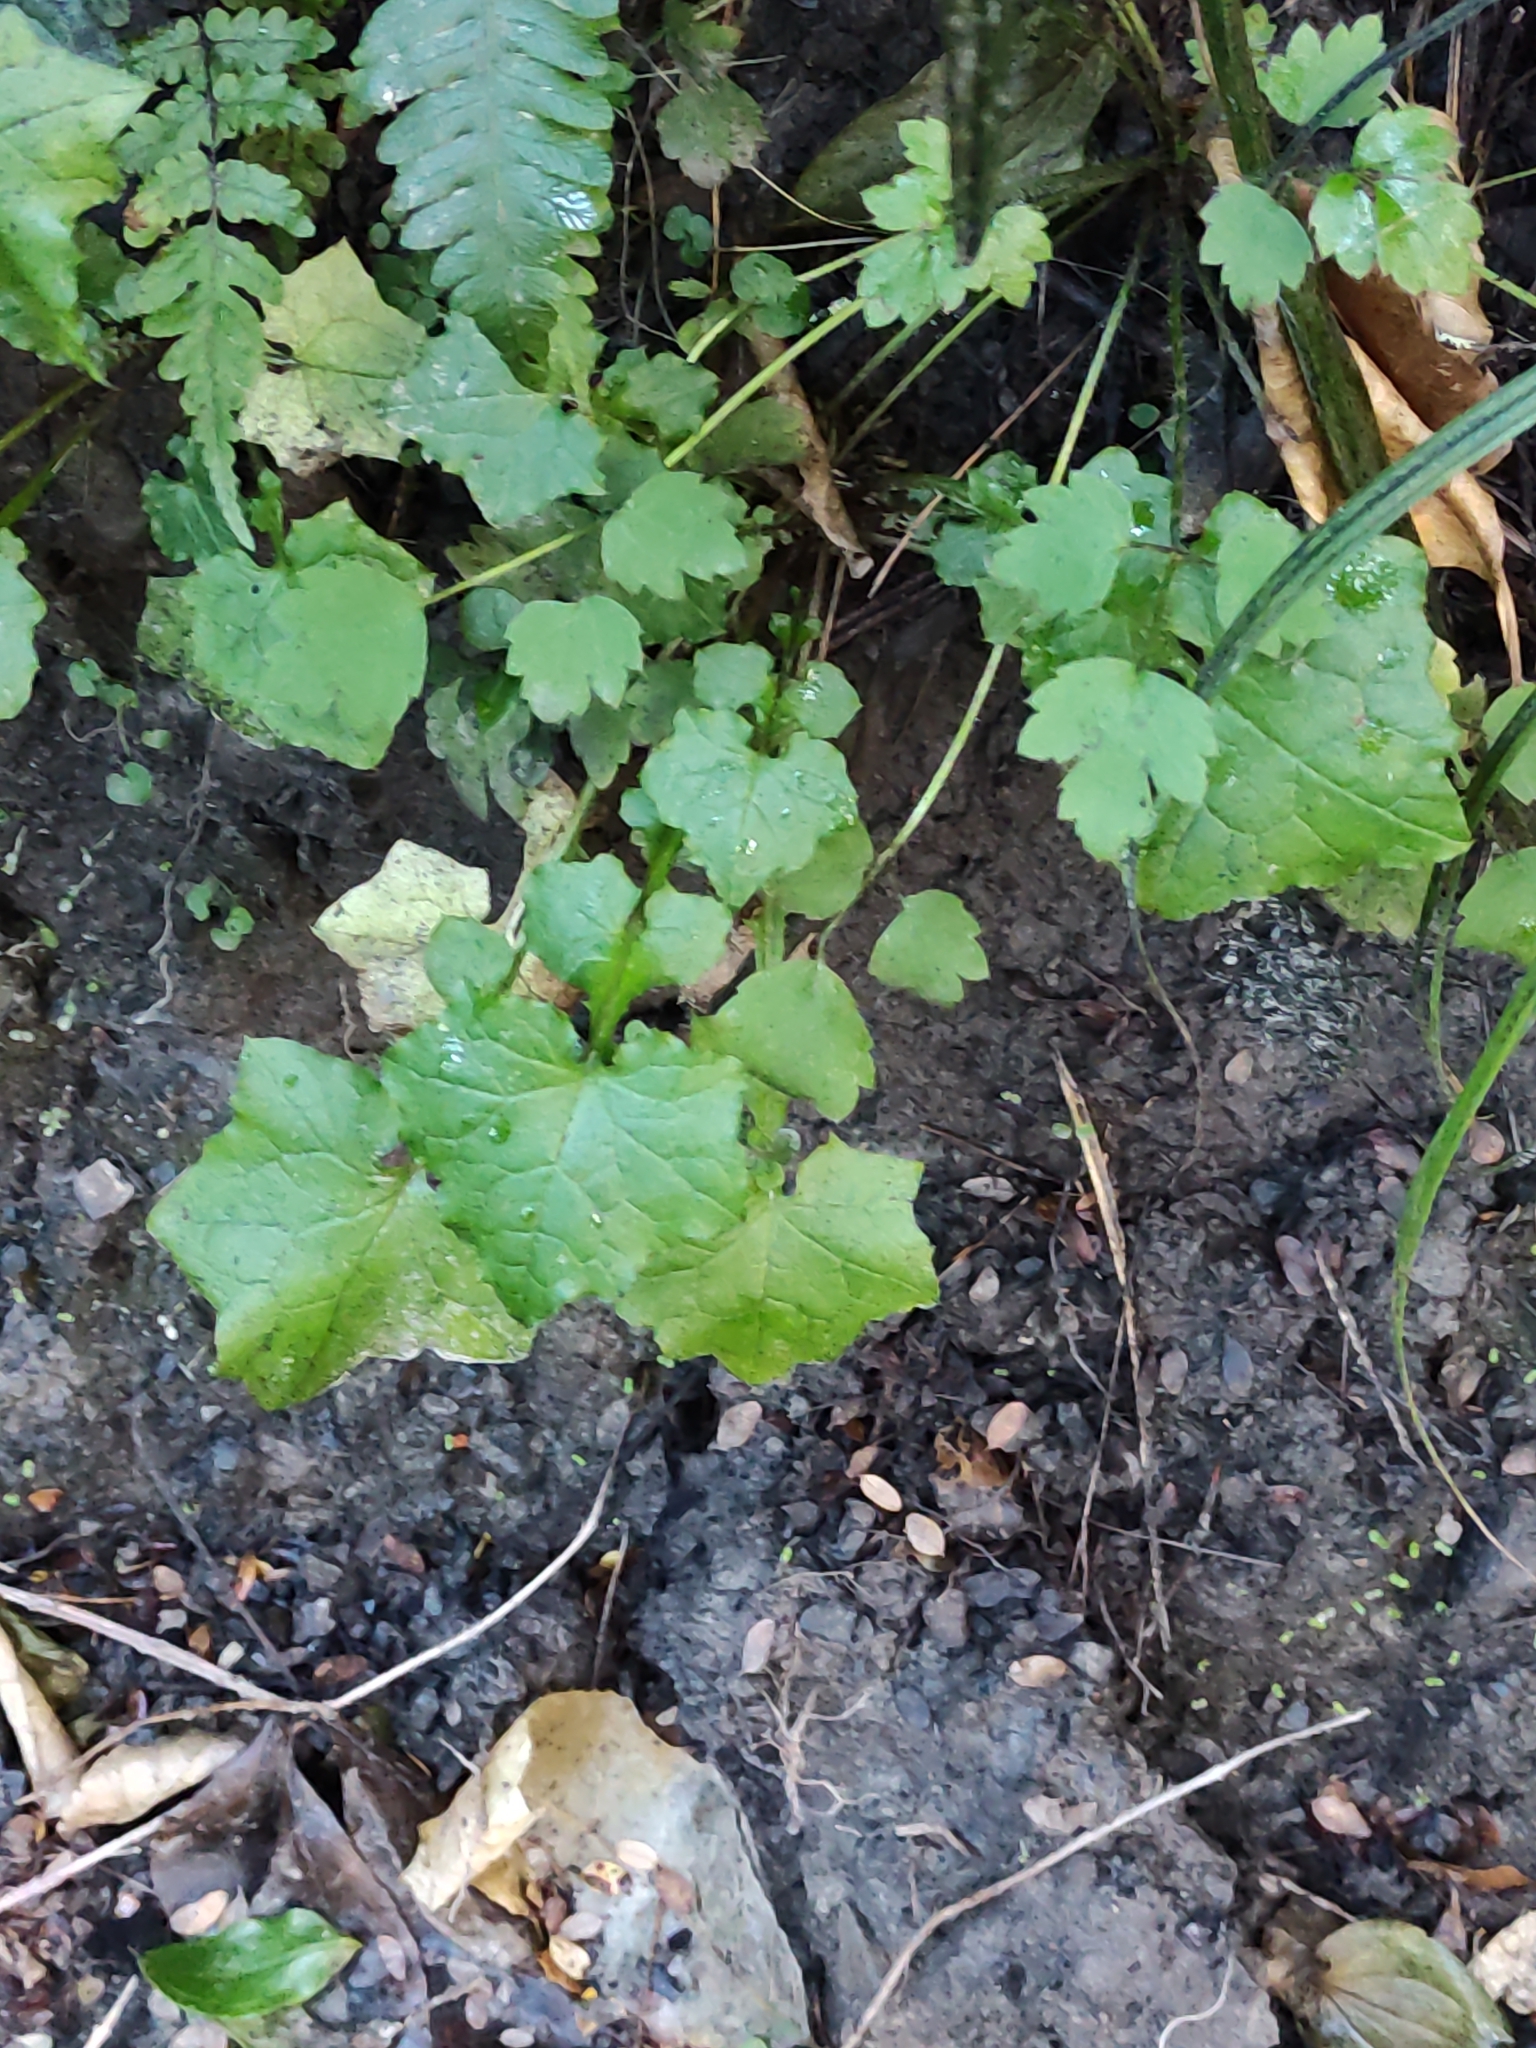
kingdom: Plantae
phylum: Tracheophyta
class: Magnoliopsida
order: Asterales
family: Asteraceae
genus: Mycelis
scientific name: Mycelis muralis
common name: Wall lettuce
